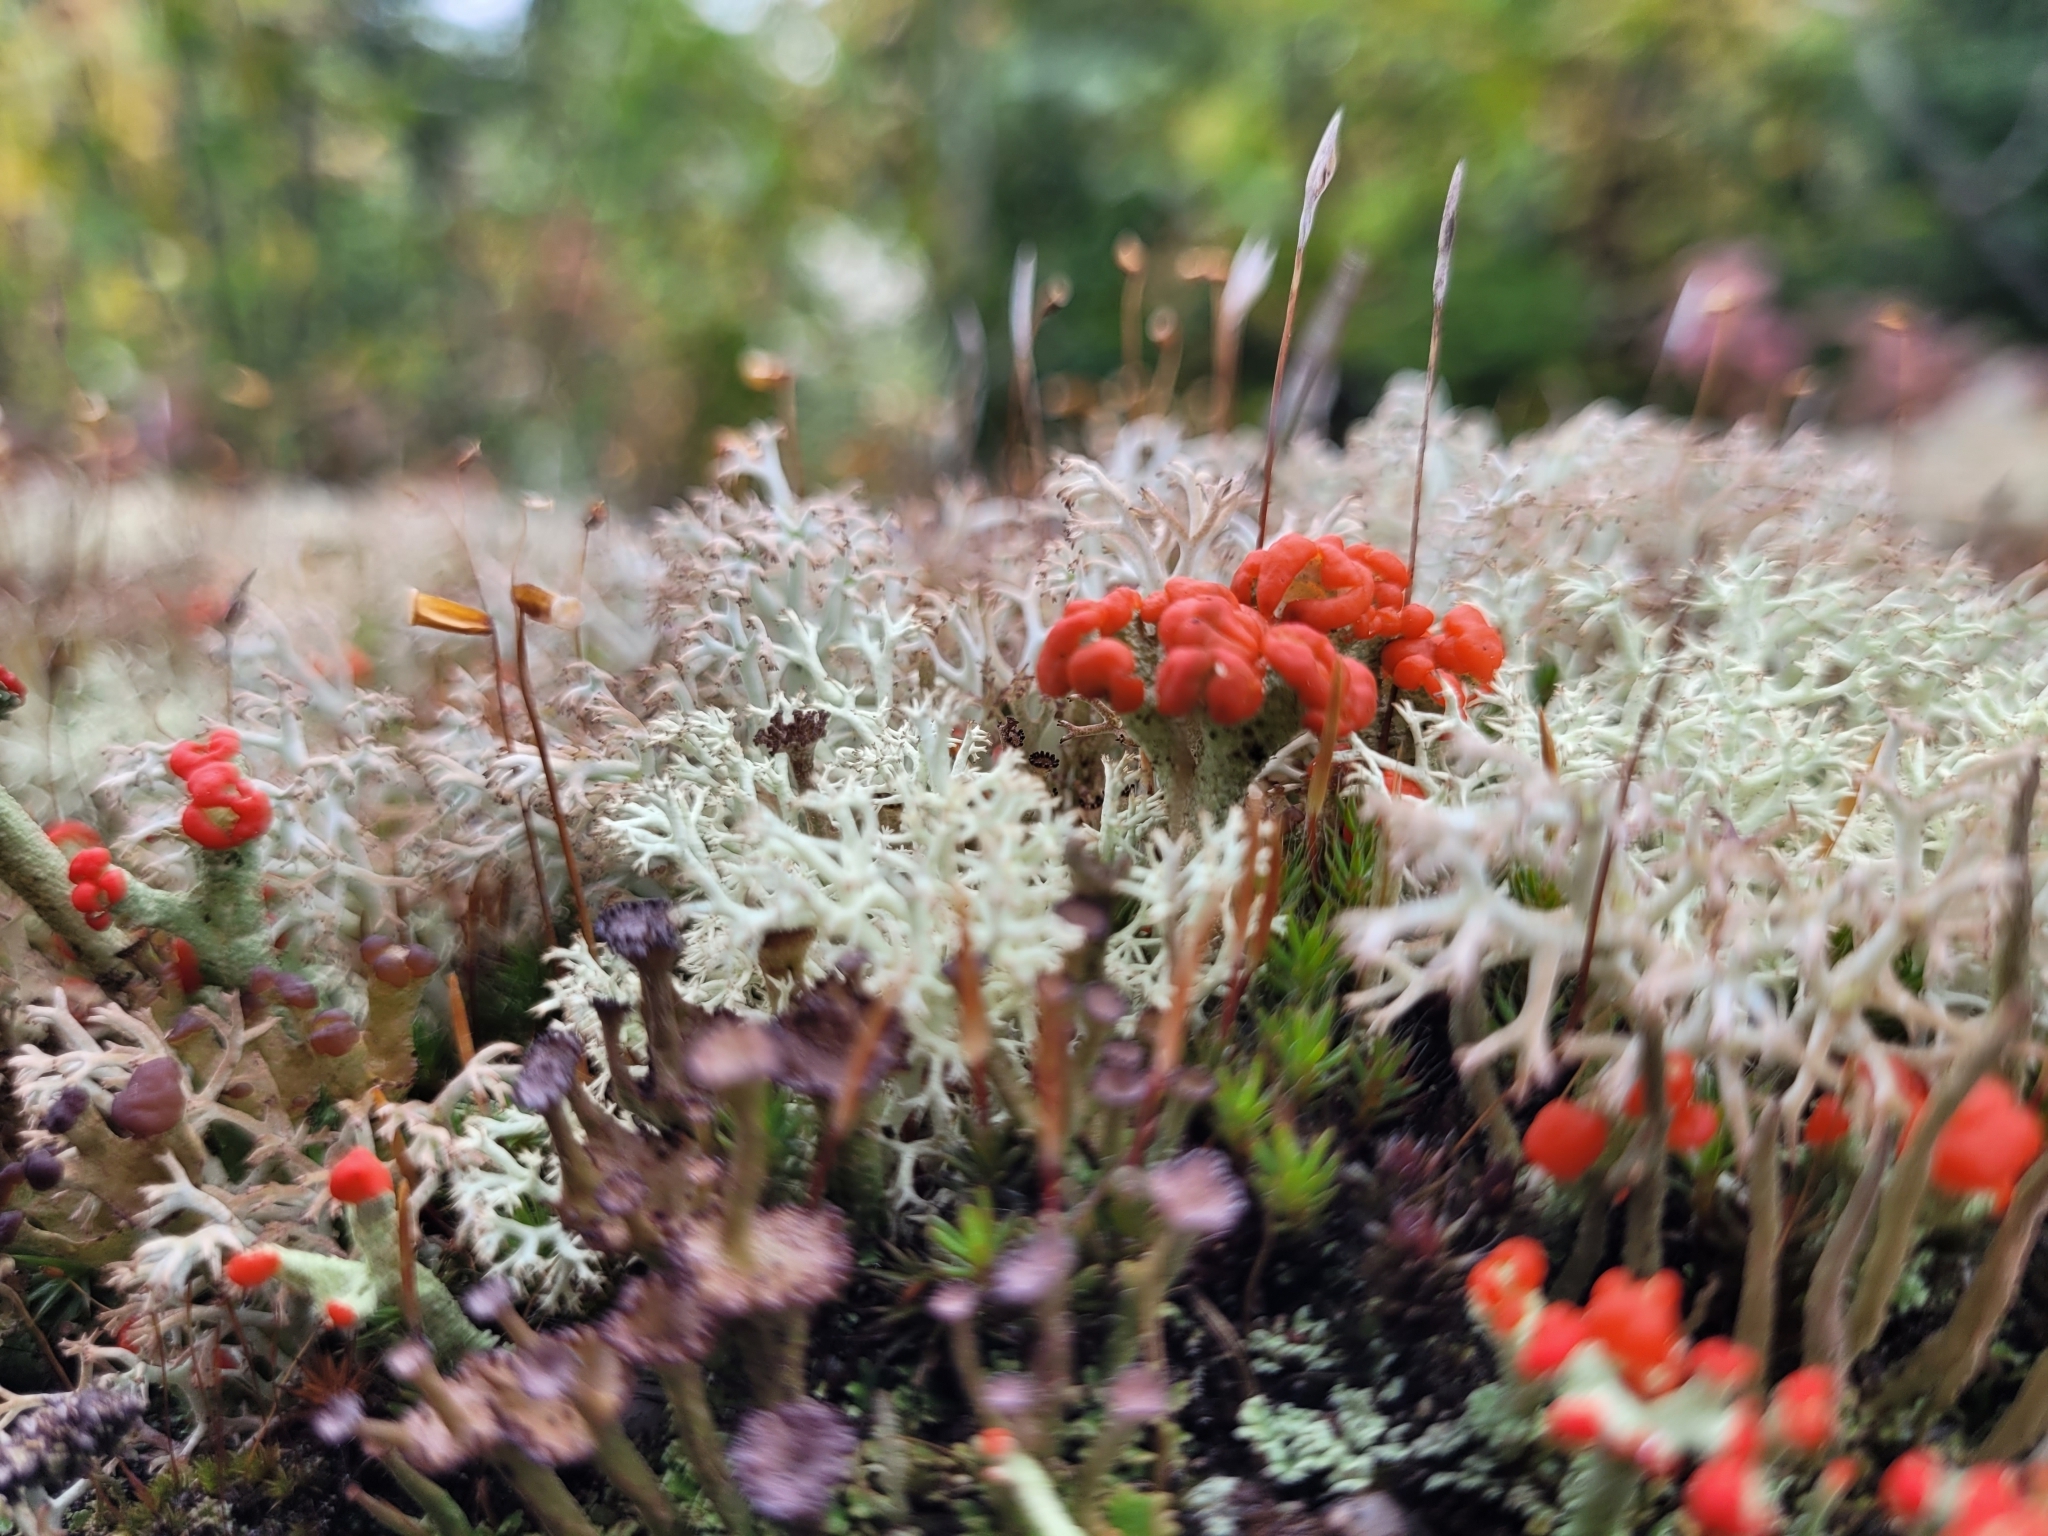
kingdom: Fungi
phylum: Ascomycota
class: Lecanoromycetes
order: Lecanorales
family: Cladoniaceae
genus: Cladonia
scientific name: Cladonia cristatella
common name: British soldier lichen
